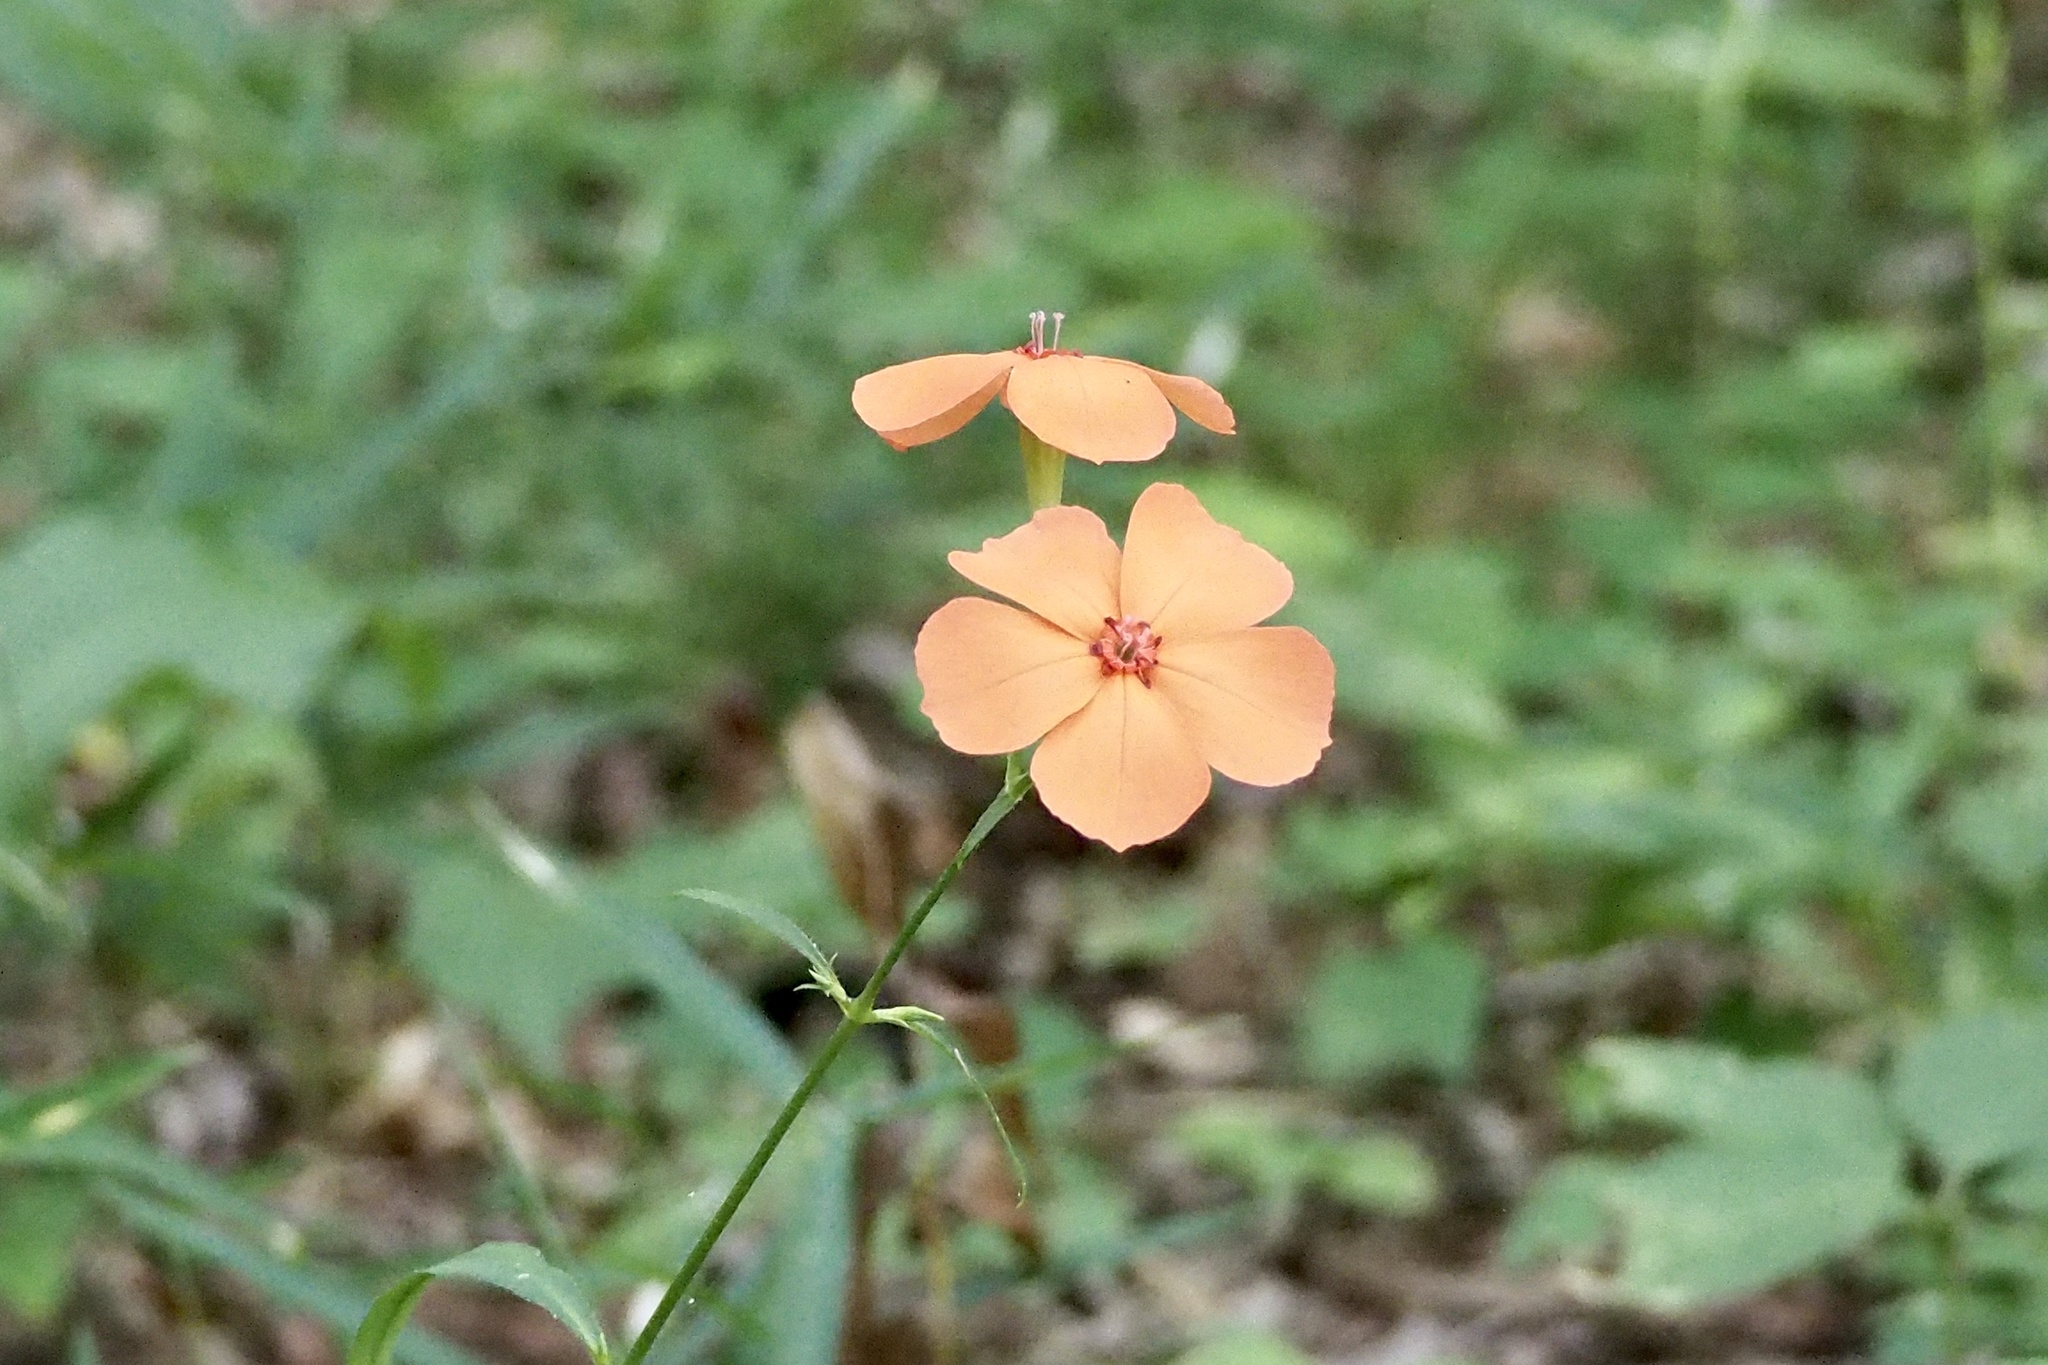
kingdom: Plantae
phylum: Tracheophyta
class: Magnoliopsida
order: Caryophyllales
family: Caryophyllaceae
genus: Silene
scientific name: Silene miqueliana
